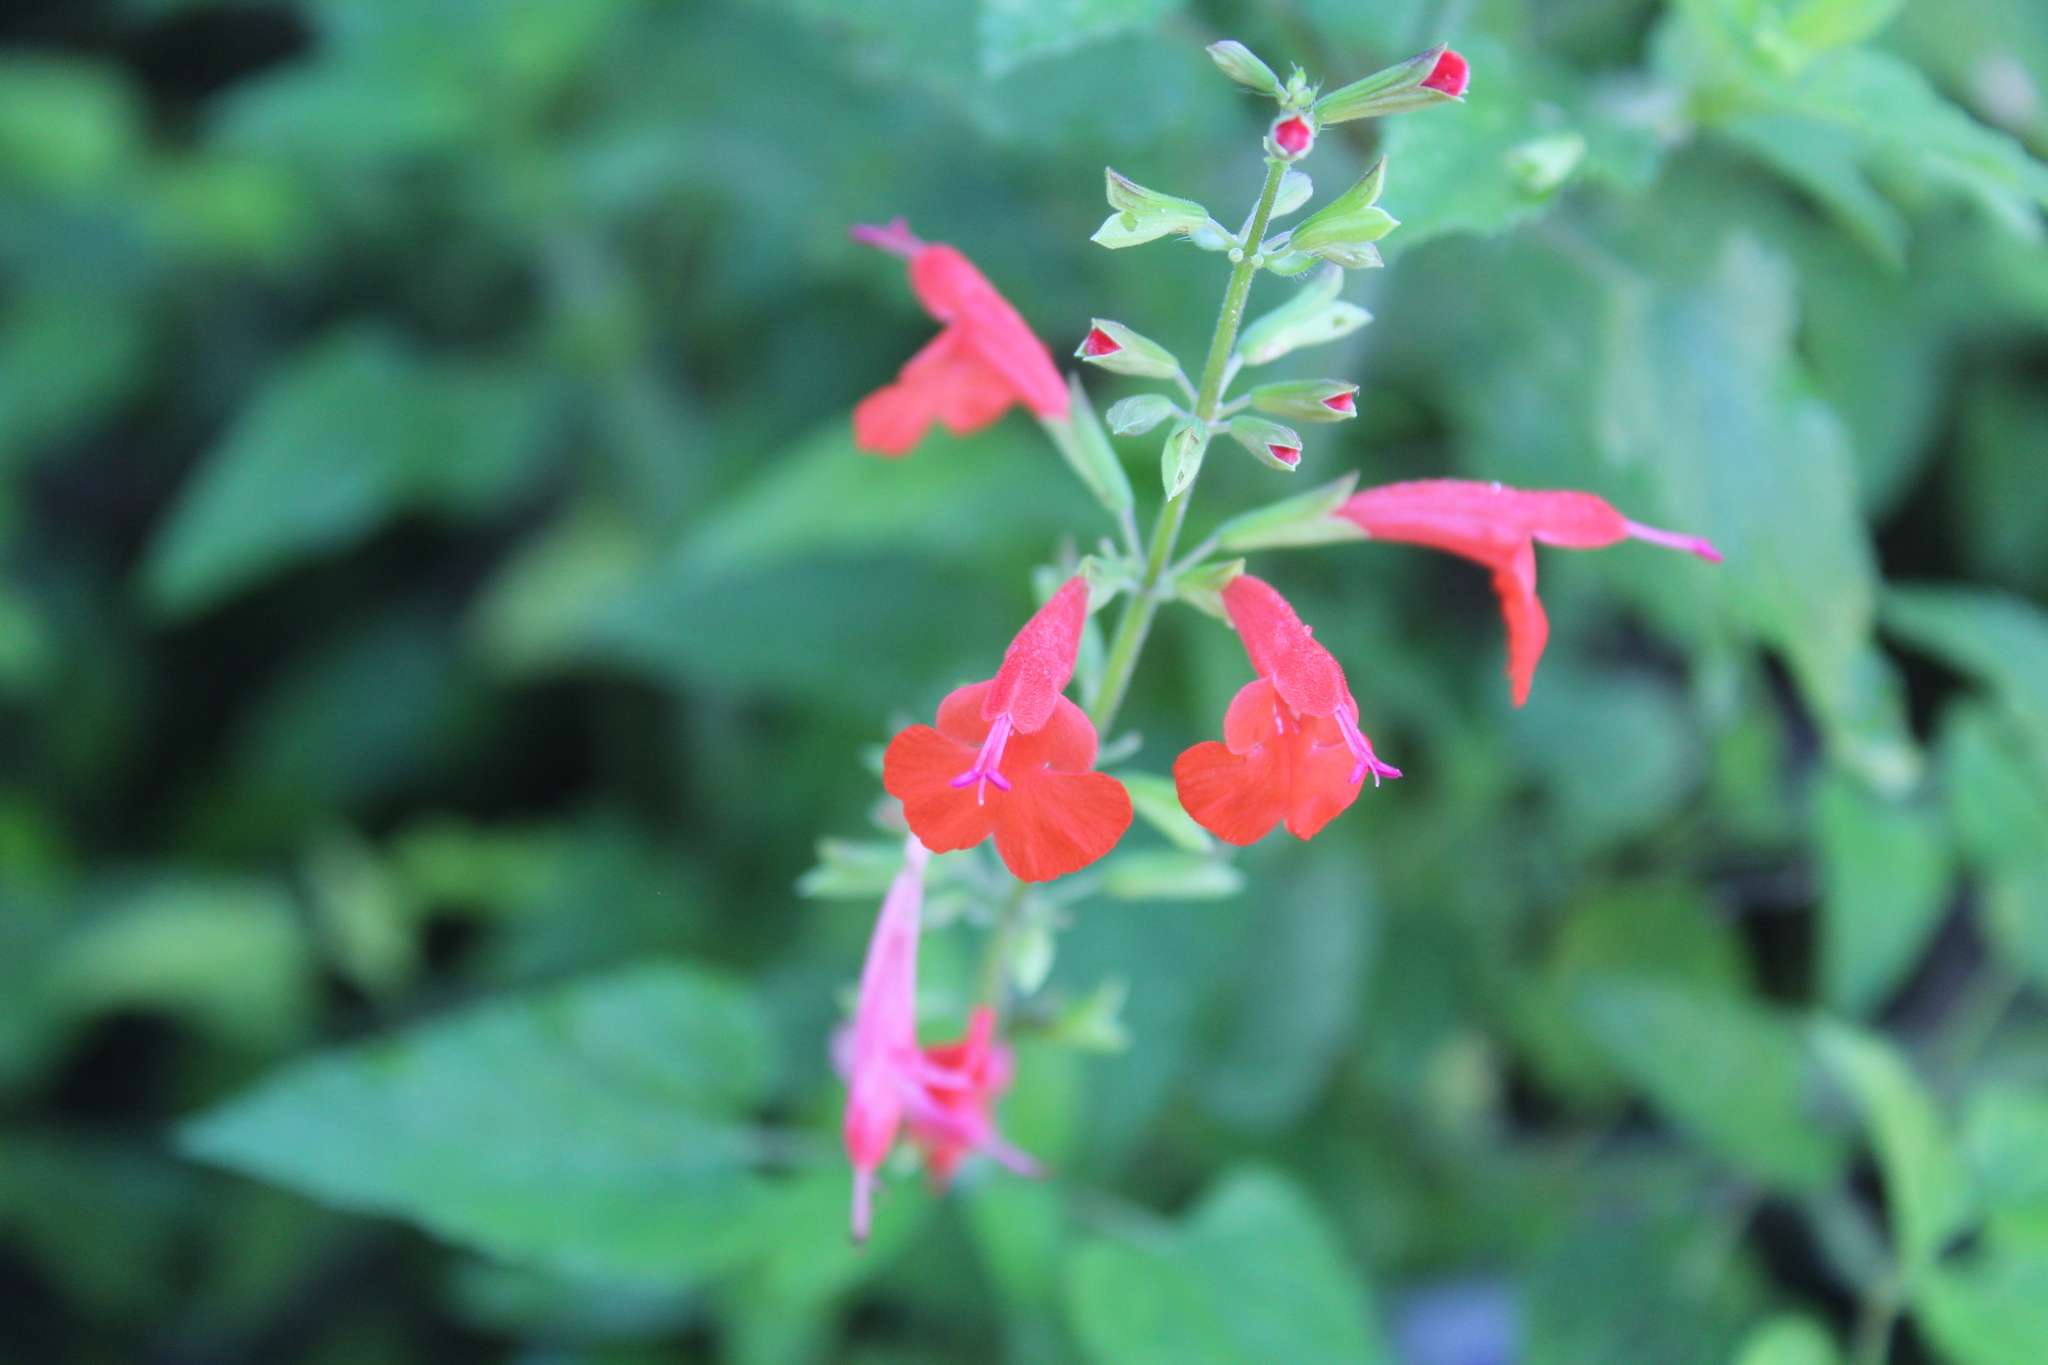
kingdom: Plantae
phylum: Tracheophyta
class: Magnoliopsida
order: Lamiales
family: Lamiaceae
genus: Salvia
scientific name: Salvia coccinea
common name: Blood sage
